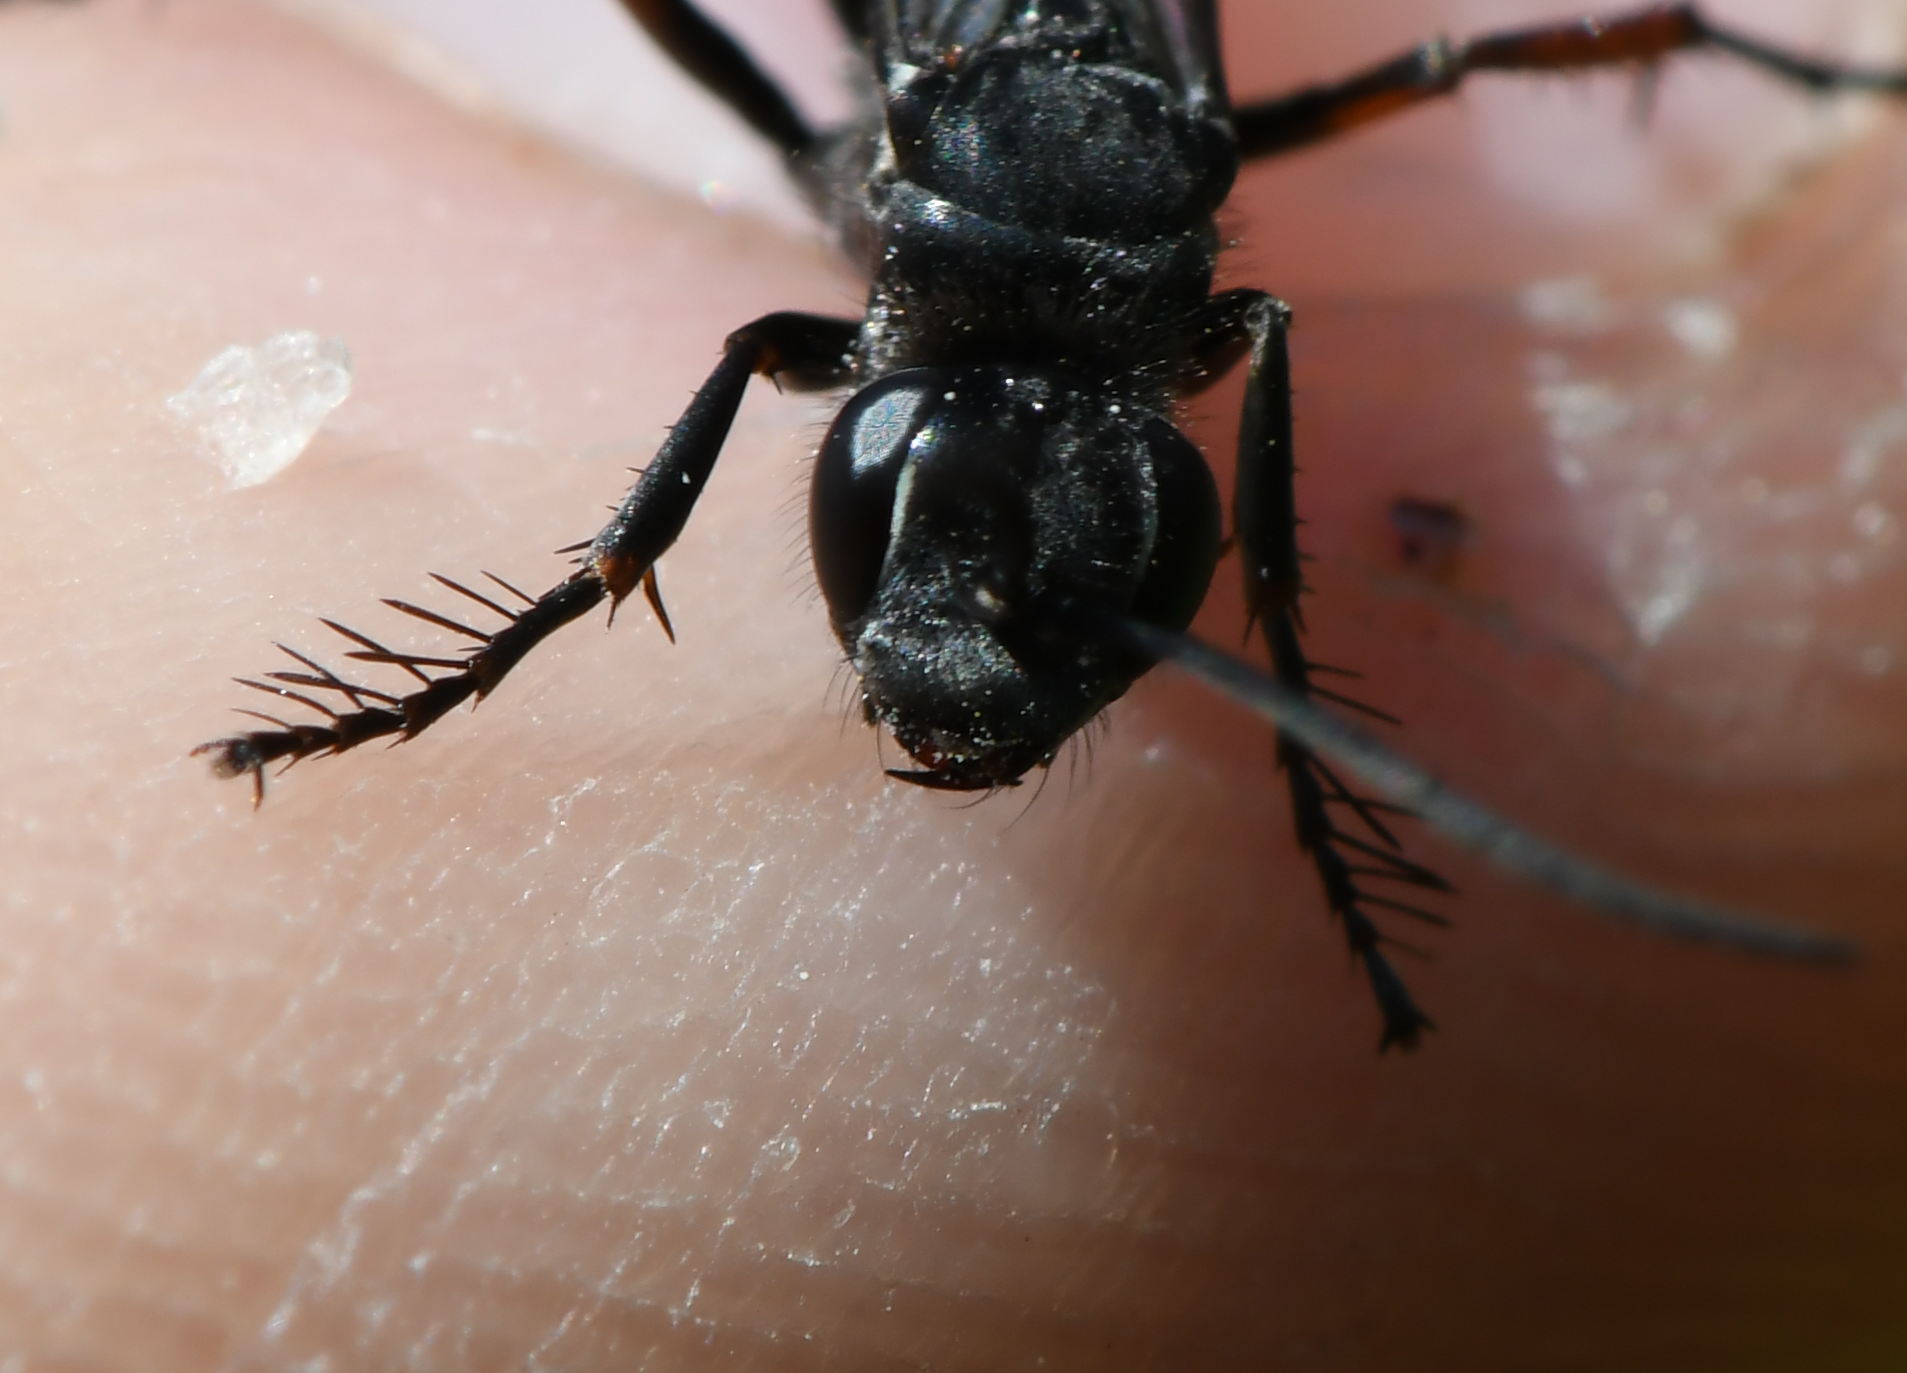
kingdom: Animalia
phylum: Arthropoda
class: Insecta
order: Hymenoptera
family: Pompilidae
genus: Episyron
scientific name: Episyron rufipes
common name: Red legged spider wasp
